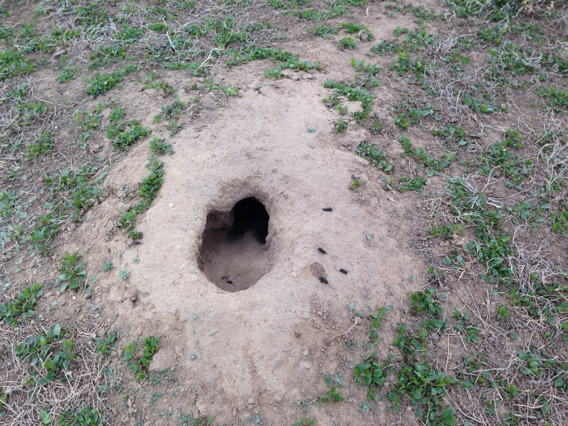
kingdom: Animalia
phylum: Chordata
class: Mammalia
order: Rodentia
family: Sciuridae
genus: Cynomys
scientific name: Cynomys ludovicianus
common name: Black-tailed prairie dog
